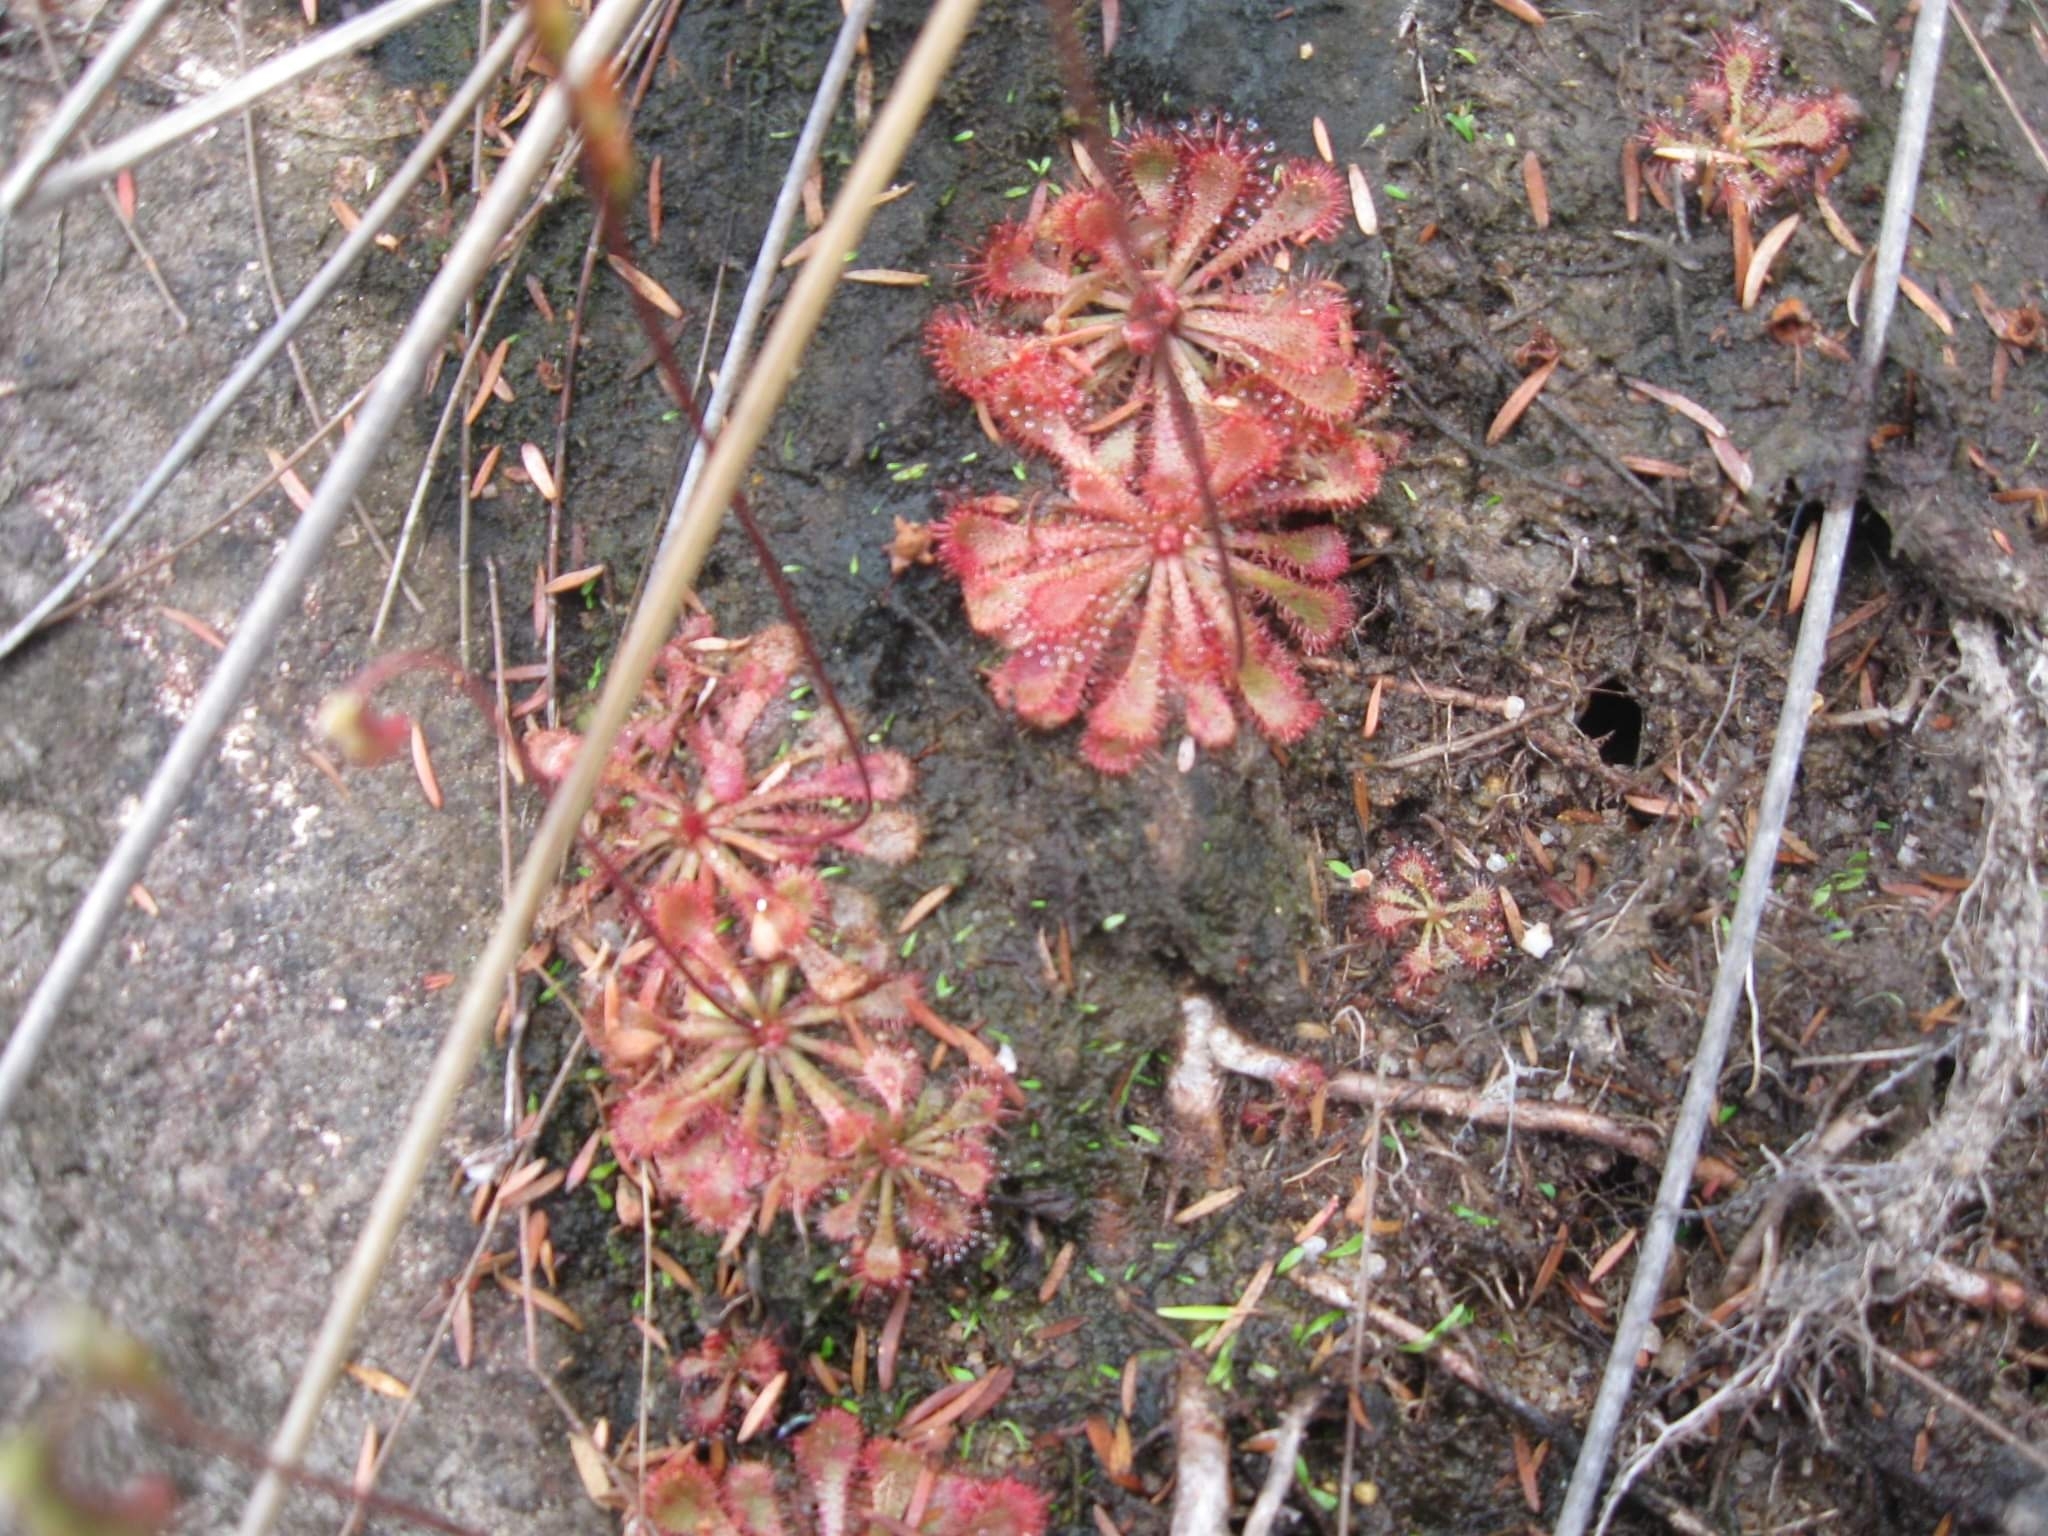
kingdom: Plantae
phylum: Tracheophyta
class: Magnoliopsida
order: Caryophyllales
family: Droseraceae
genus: Drosera
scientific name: Drosera spatulata
